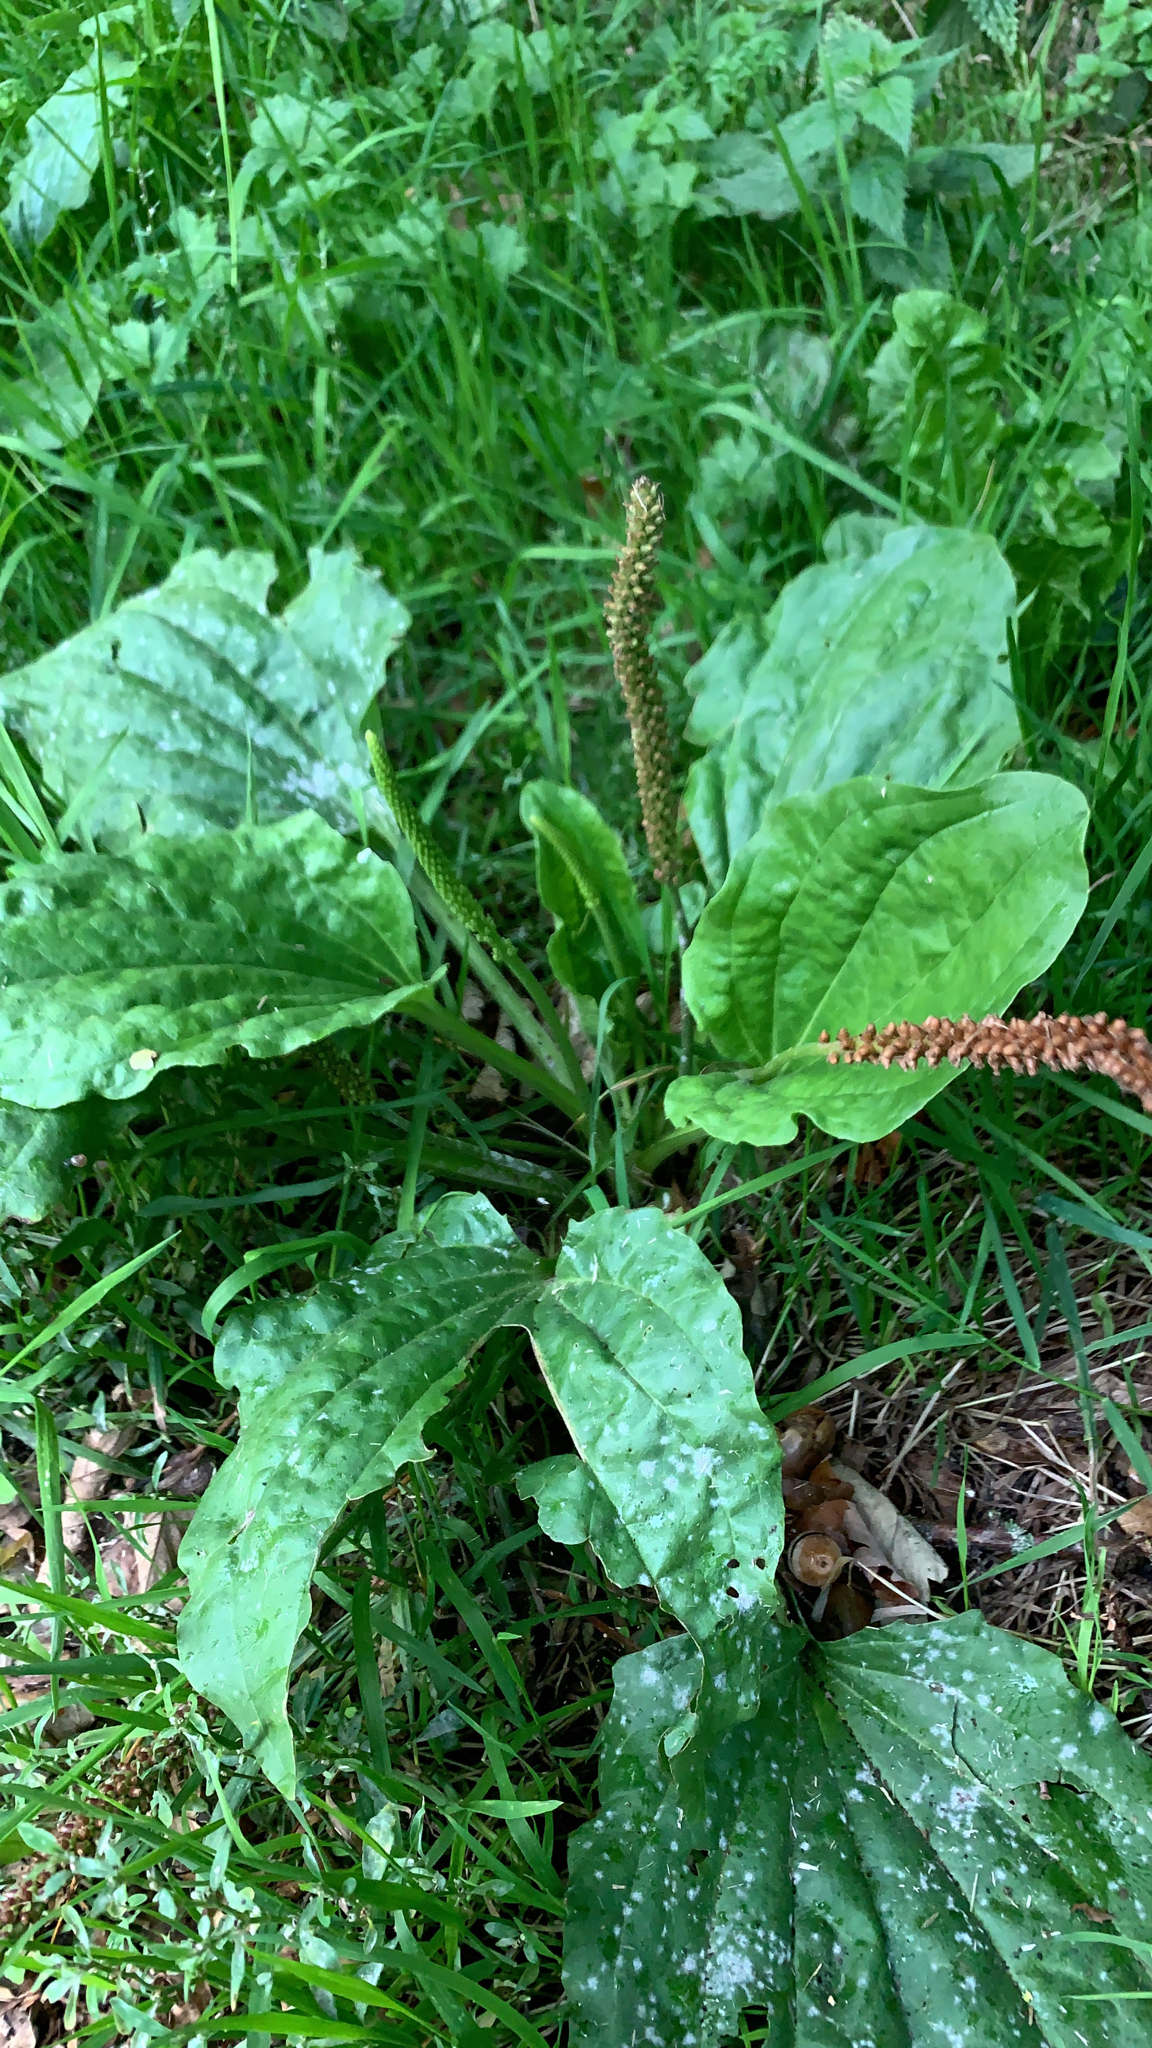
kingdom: Plantae
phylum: Tracheophyta
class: Magnoliopsida
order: Lamiales
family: Plantaginaceae
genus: Plantago
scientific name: Plantago major
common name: Common plantain
